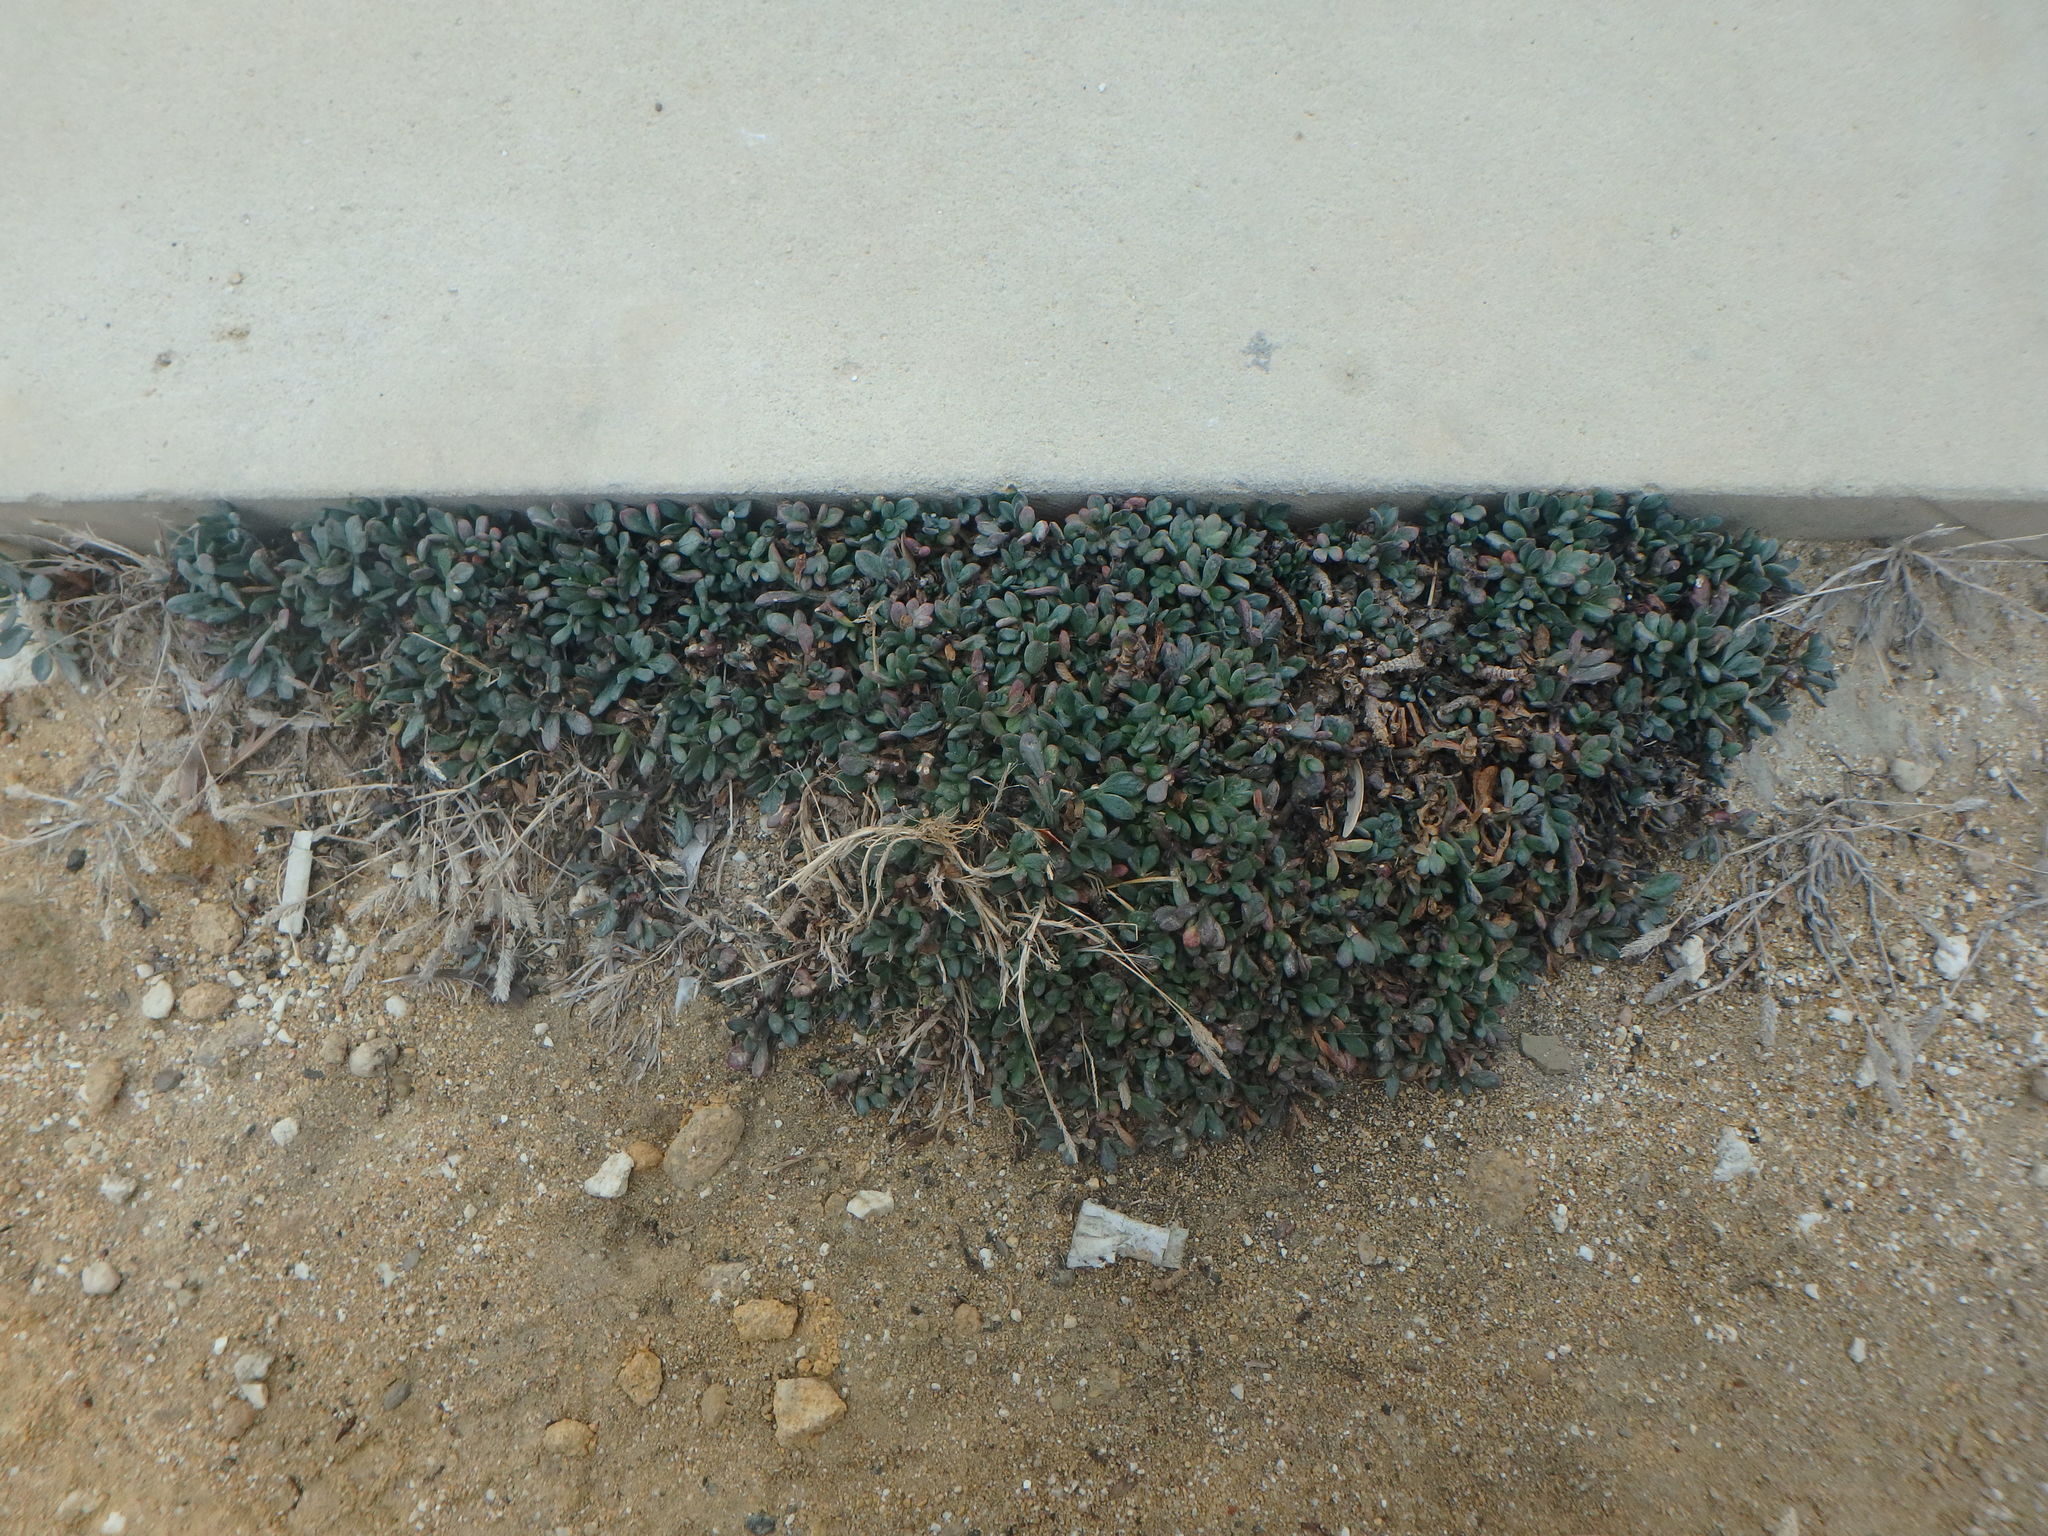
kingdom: Plantae
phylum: Tracheophyta
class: Magnoliopsida
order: Apiales
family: Apiaceae
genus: Crithmum
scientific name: Crithmum maritimum
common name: Rock samphire
